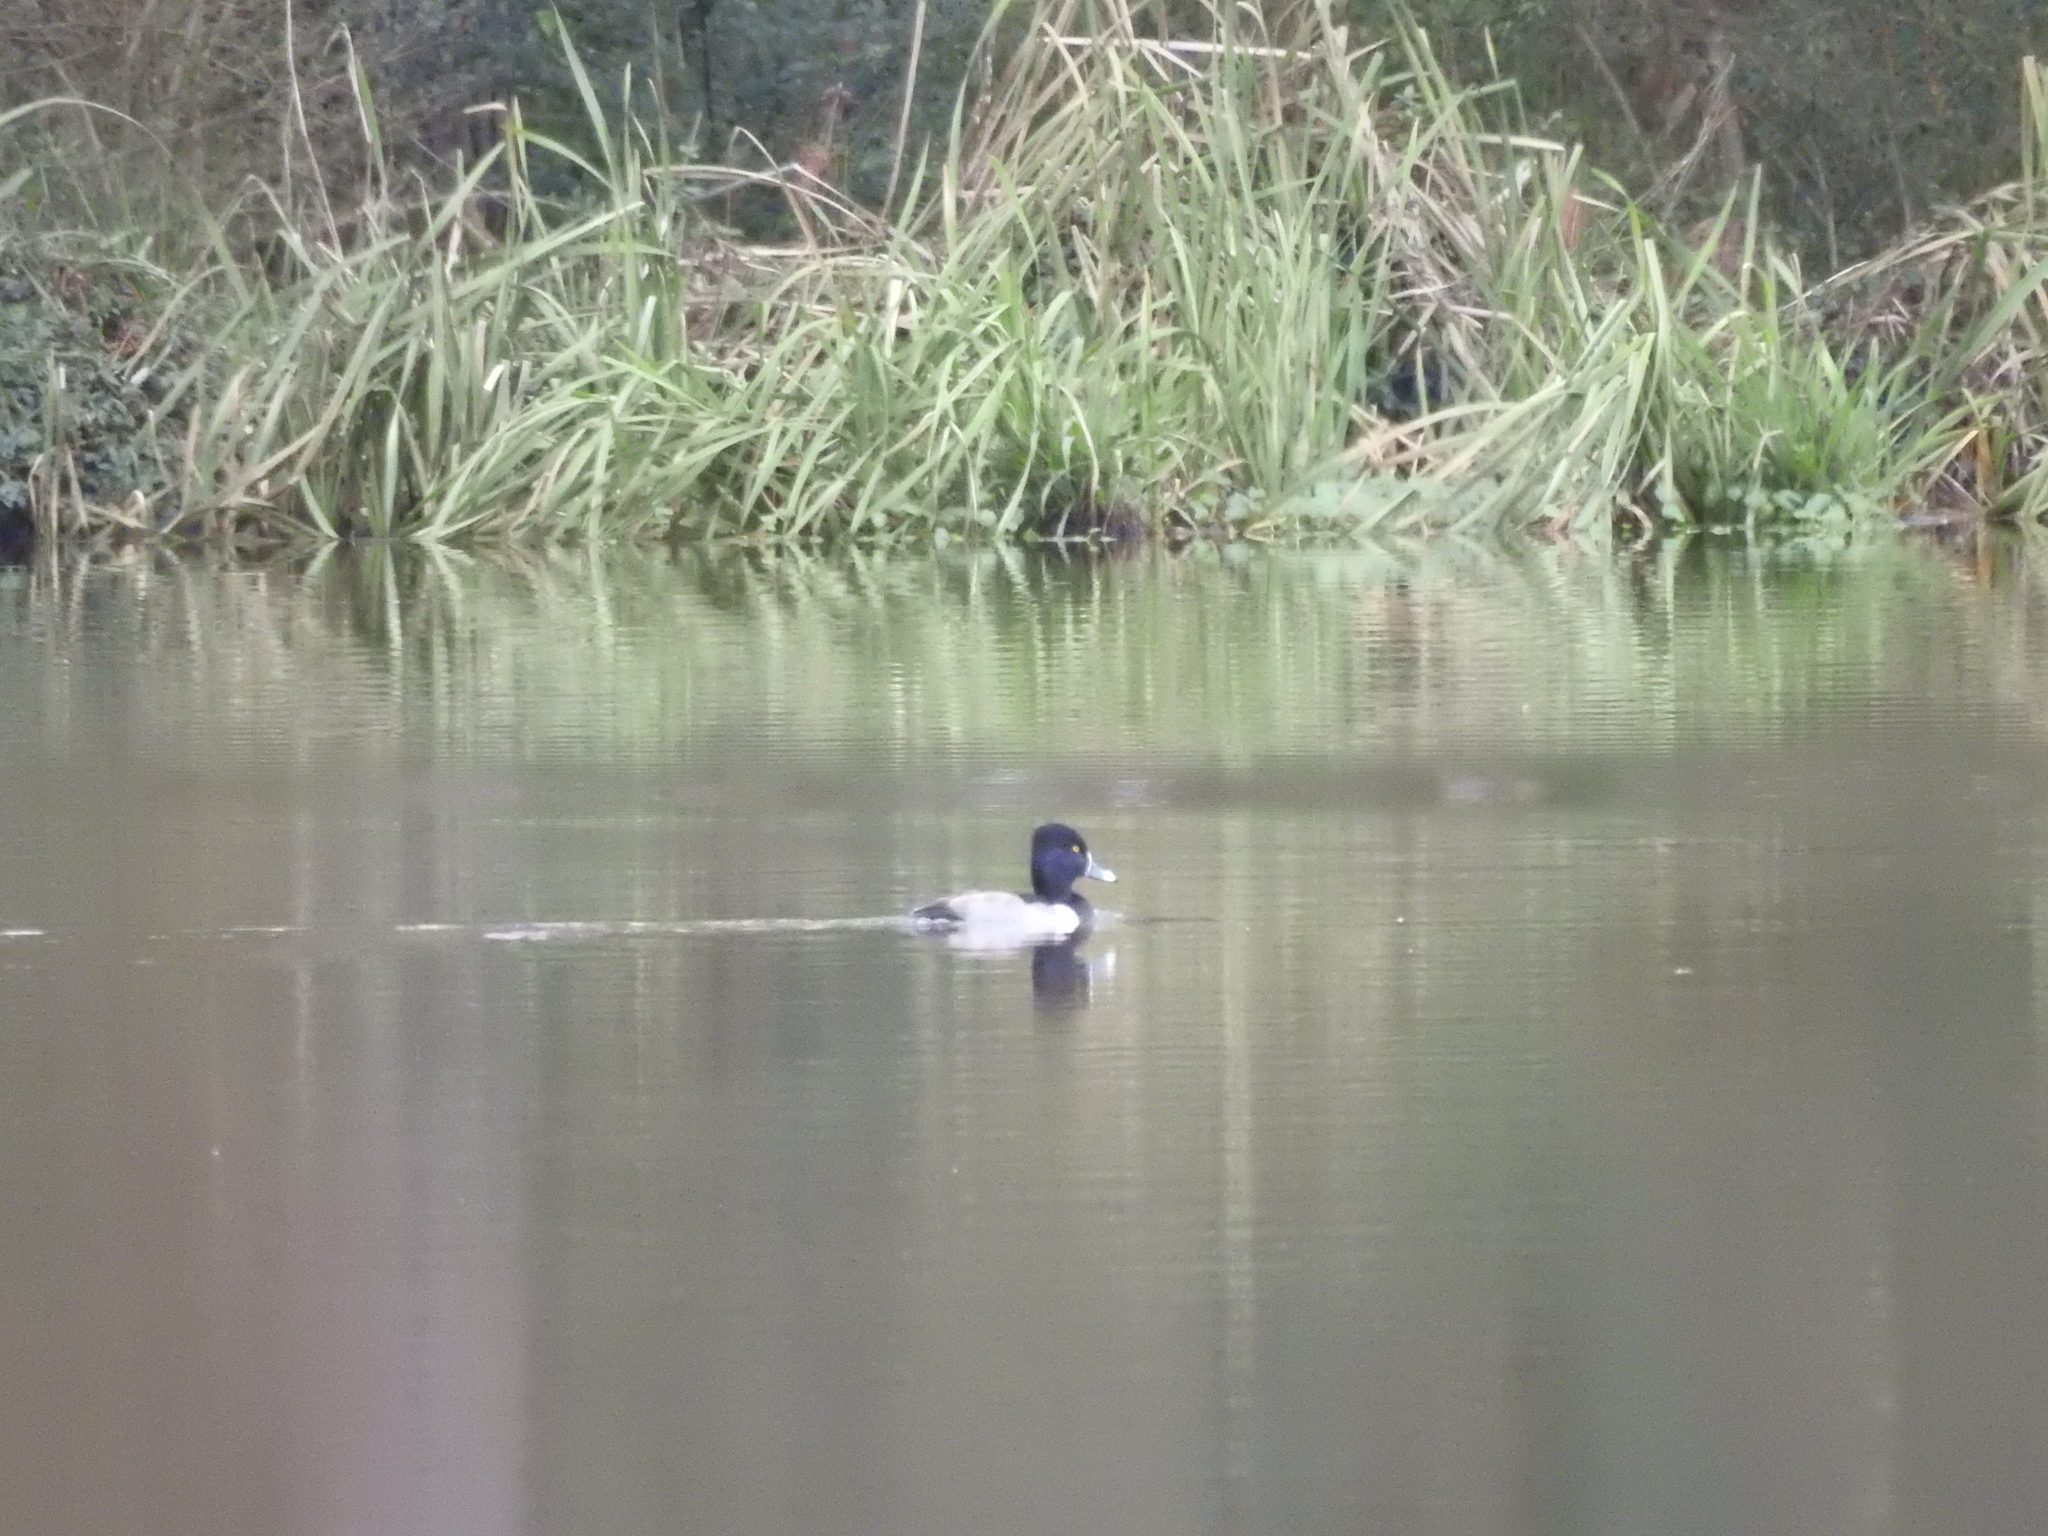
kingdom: Animalia
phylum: Chordata
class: Aves
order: Anseriformes
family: Anatidae
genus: Aythya
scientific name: Aythya collaris
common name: Ring-necked duck
